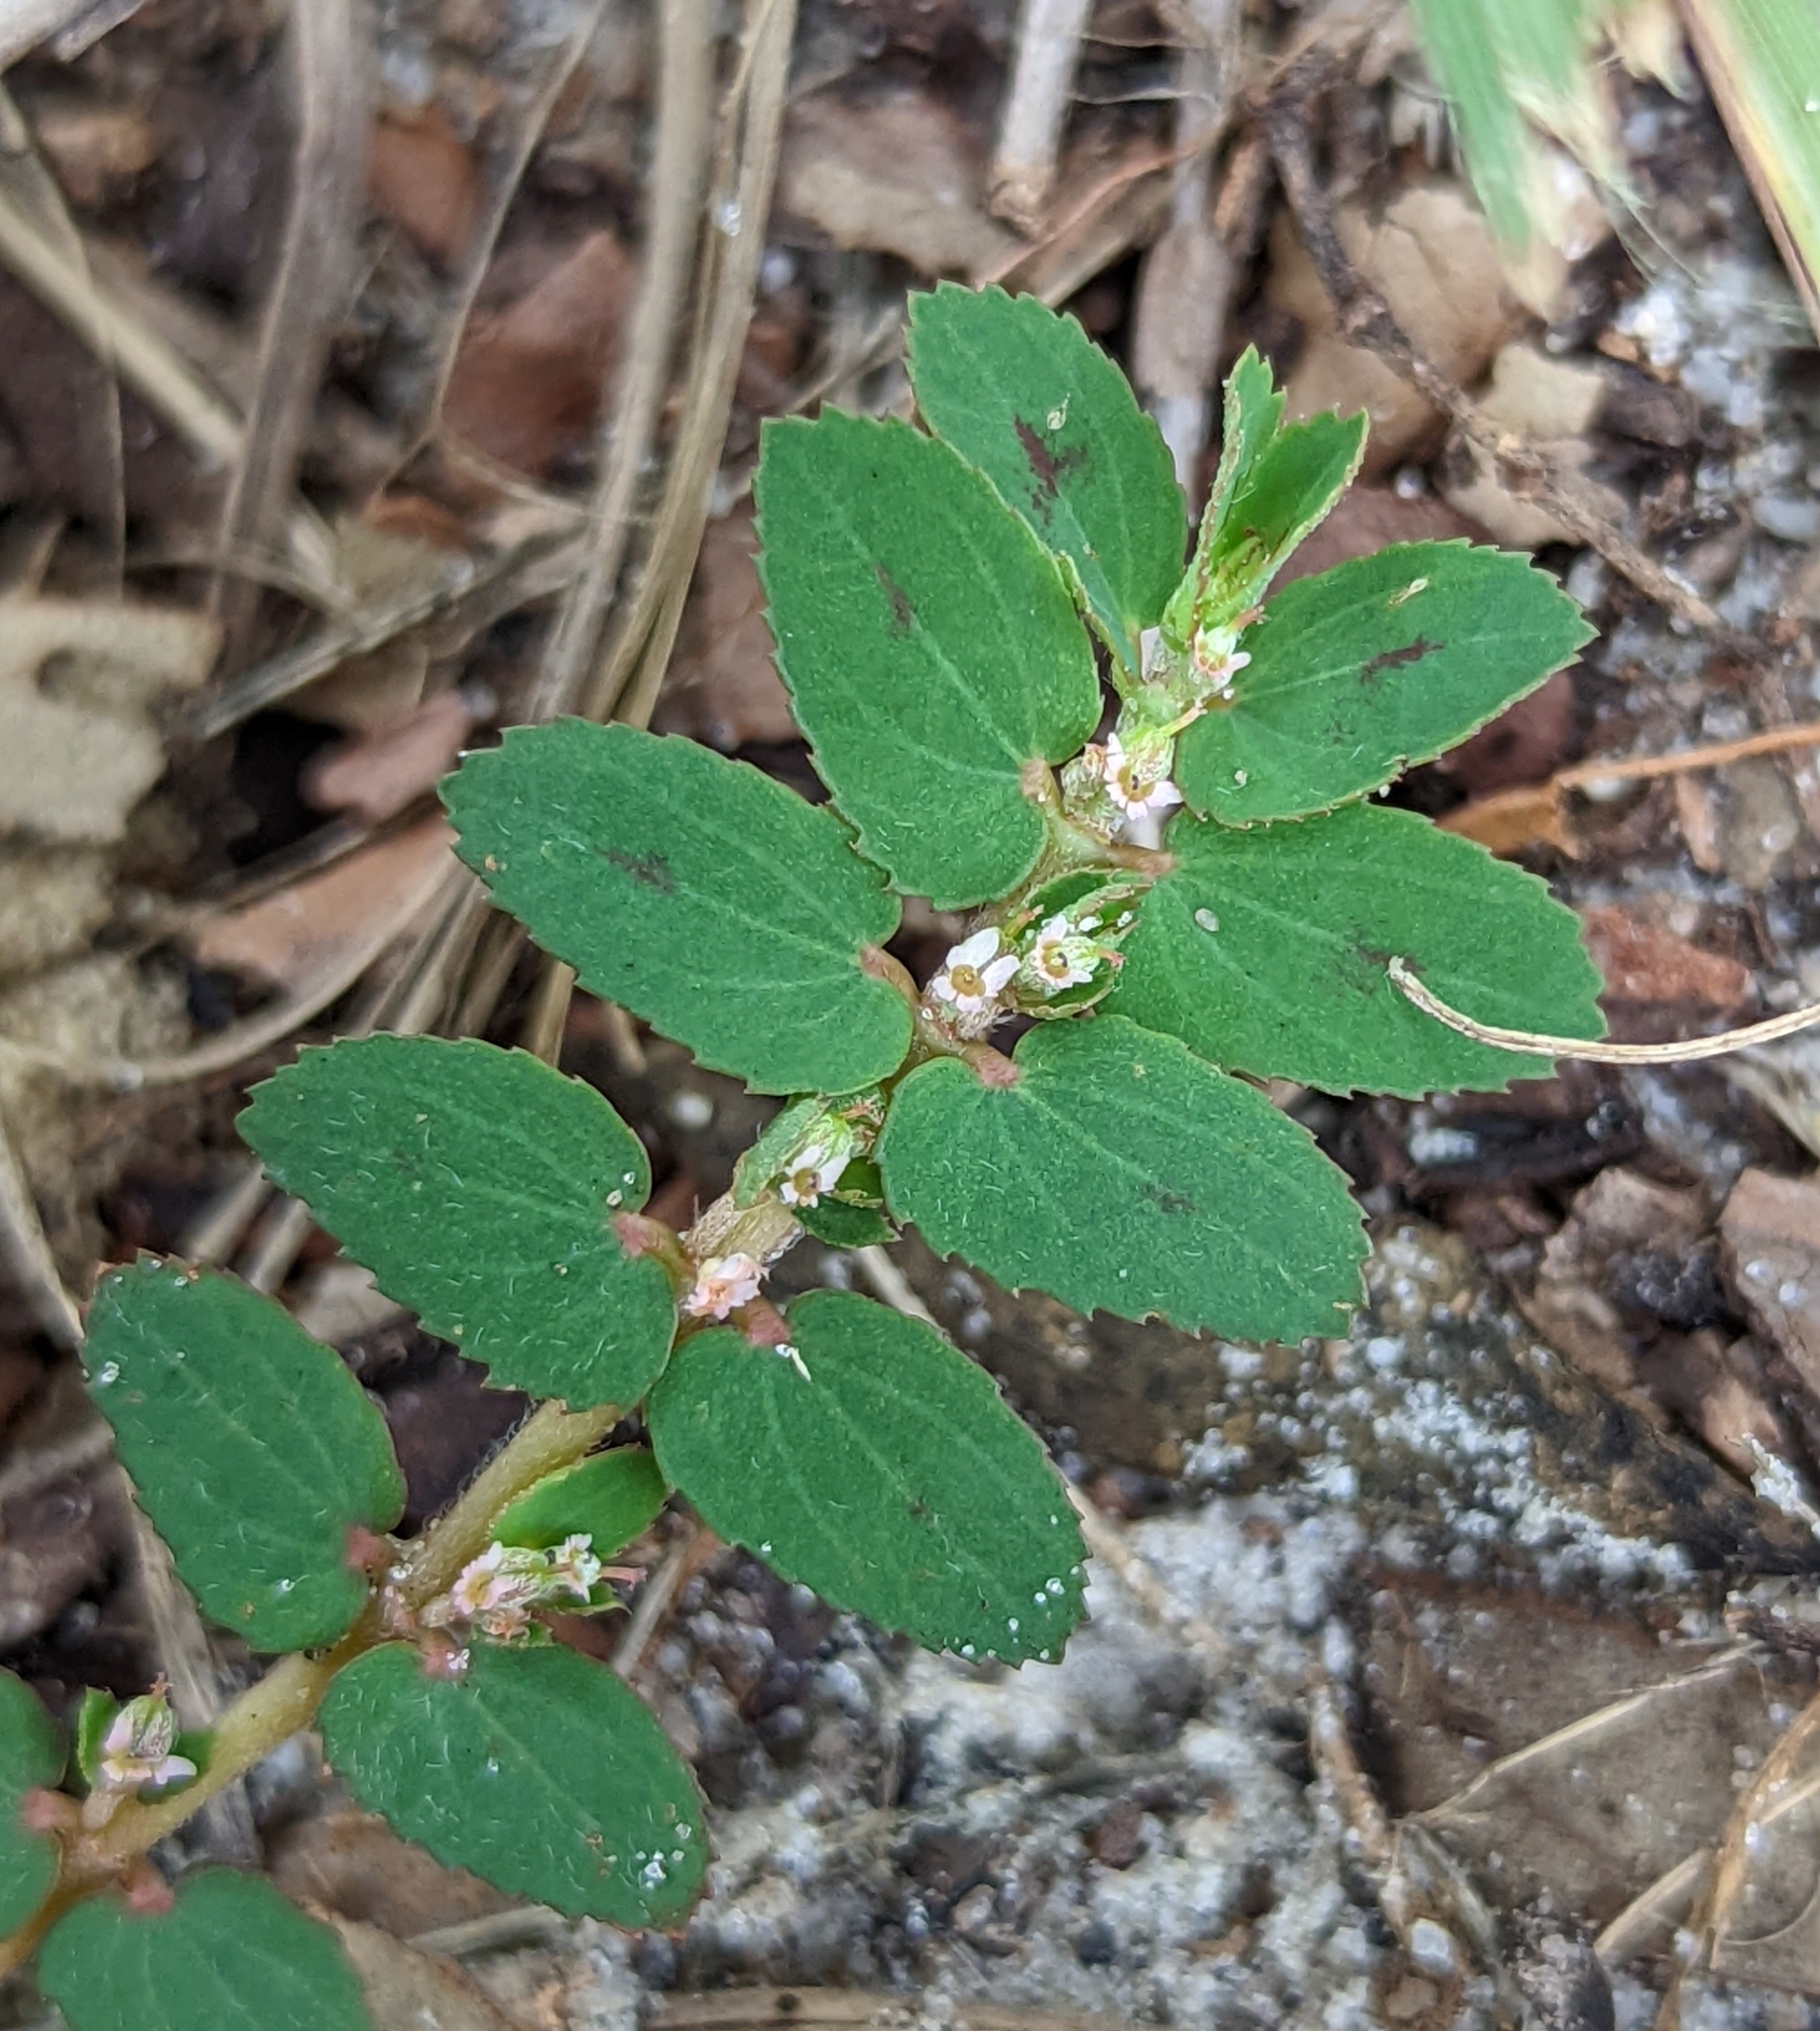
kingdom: Plantae
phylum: Tracheophyta
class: Magnoliopsida
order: Malpighiales
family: Euphorbiaceae
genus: Euphorbia
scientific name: Euphorbia thymifolia
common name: Gulf sandmat
